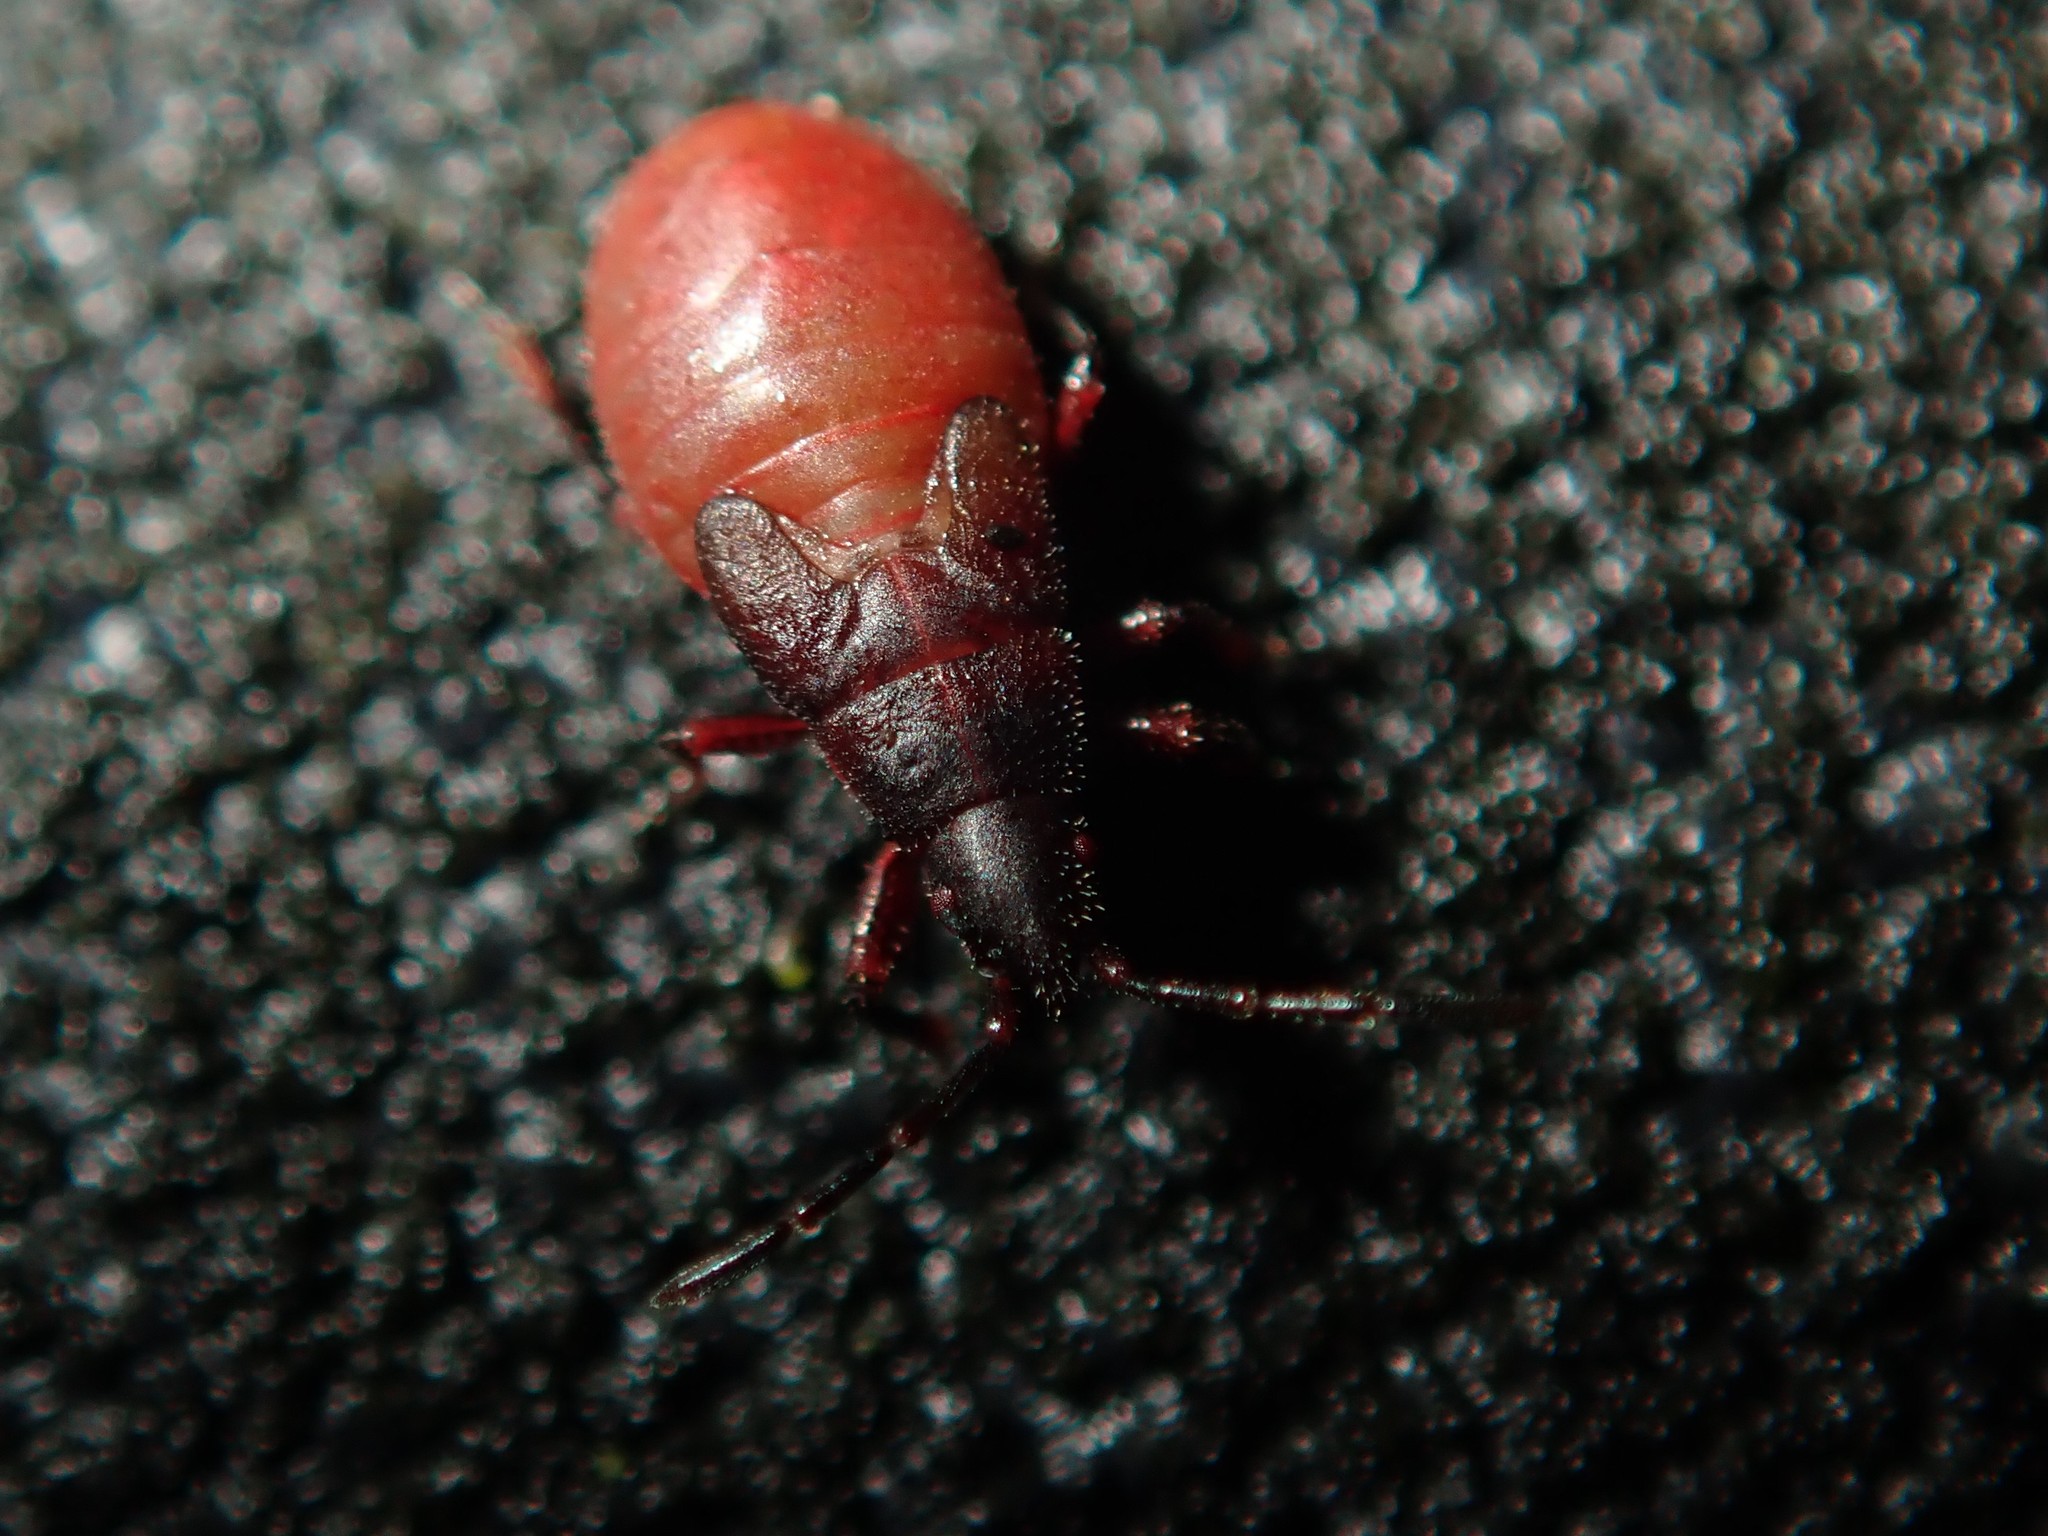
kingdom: Animalia
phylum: Arthropoda
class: Insecta
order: Hemiptera
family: Oxycarenidae
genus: Oxycarenus
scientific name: Oxycarenus lavaterae
